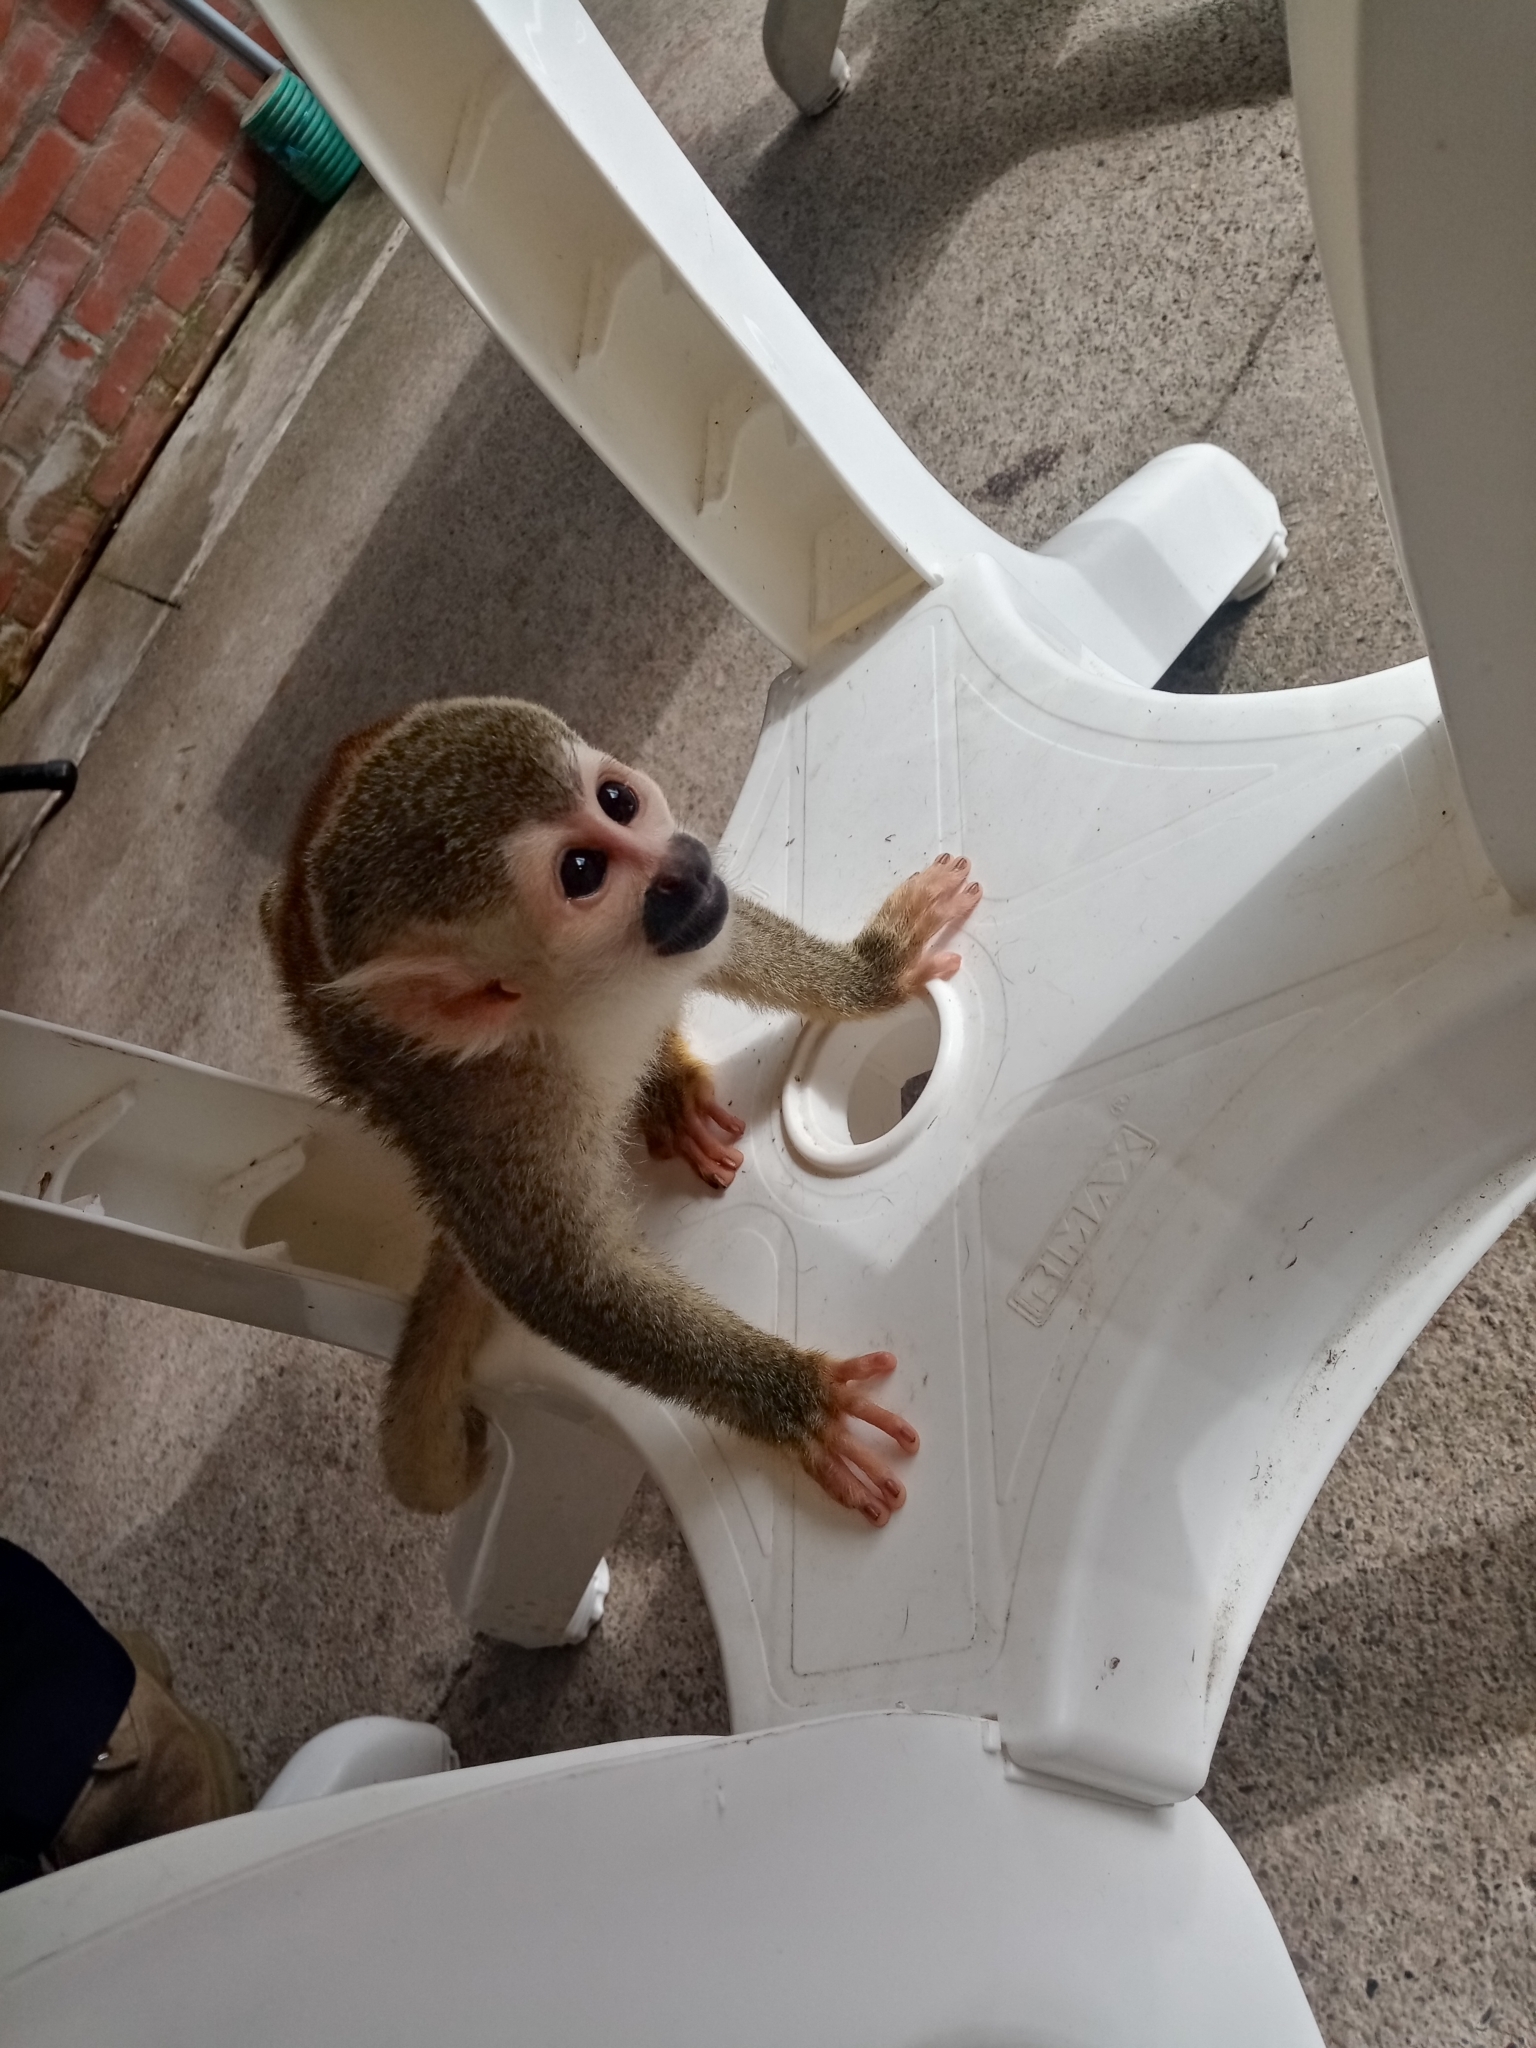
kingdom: Animalia
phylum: Chordata
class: Mammalia
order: Primates
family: Cebidae
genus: Saimiri
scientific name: Saimiri cassiquiarensis
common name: Humboldt’s squirrel monkey
